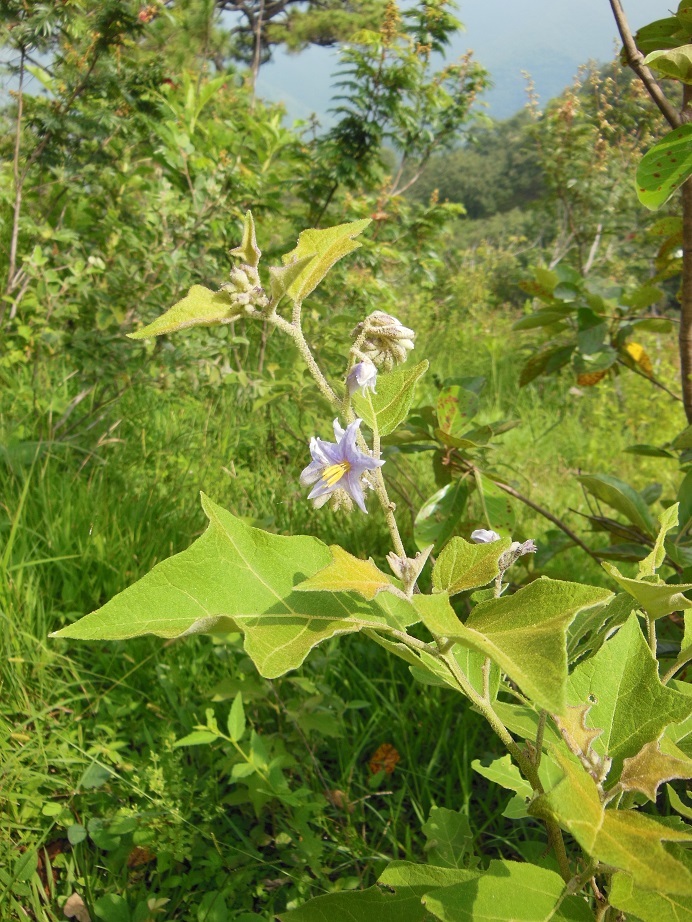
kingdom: Plantae
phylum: Tracheophyta
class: Magnoliopsida
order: Solanales
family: Solanaceae
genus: Solanum
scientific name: Solanum lanceolatum
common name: Orangeberry nightshade
